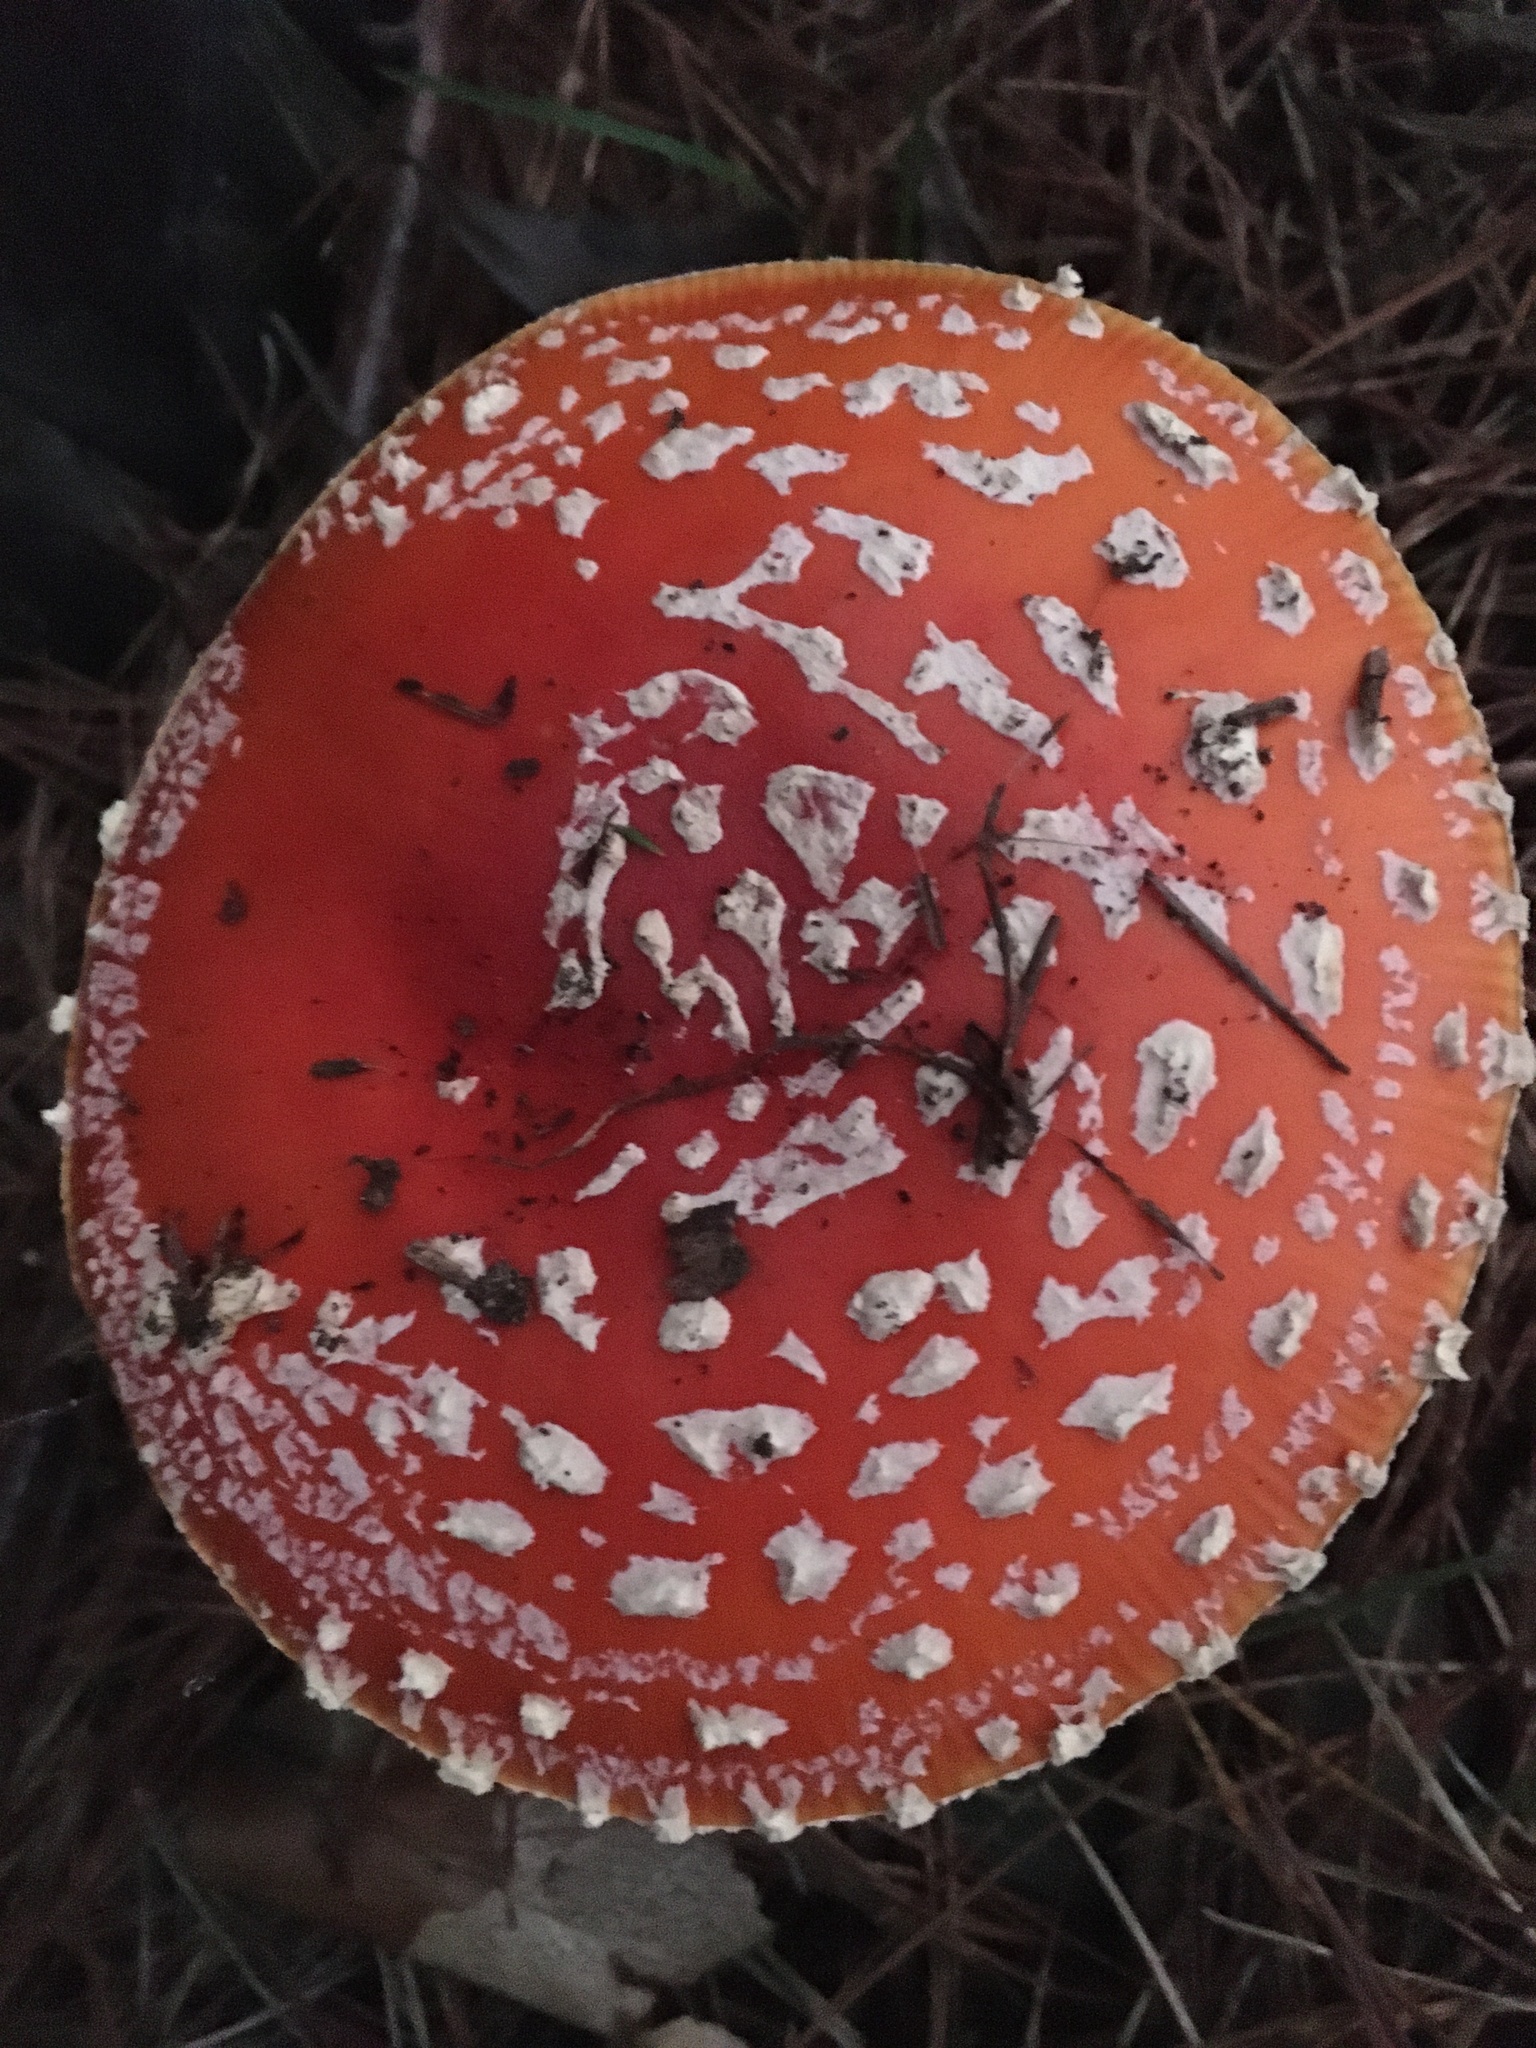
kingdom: Fungi
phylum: Basidiomycota
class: Agaricomycetes
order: Agaricales
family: Amanitaceae
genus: Amanita
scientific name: Amanita muscaria
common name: Fly agaric
